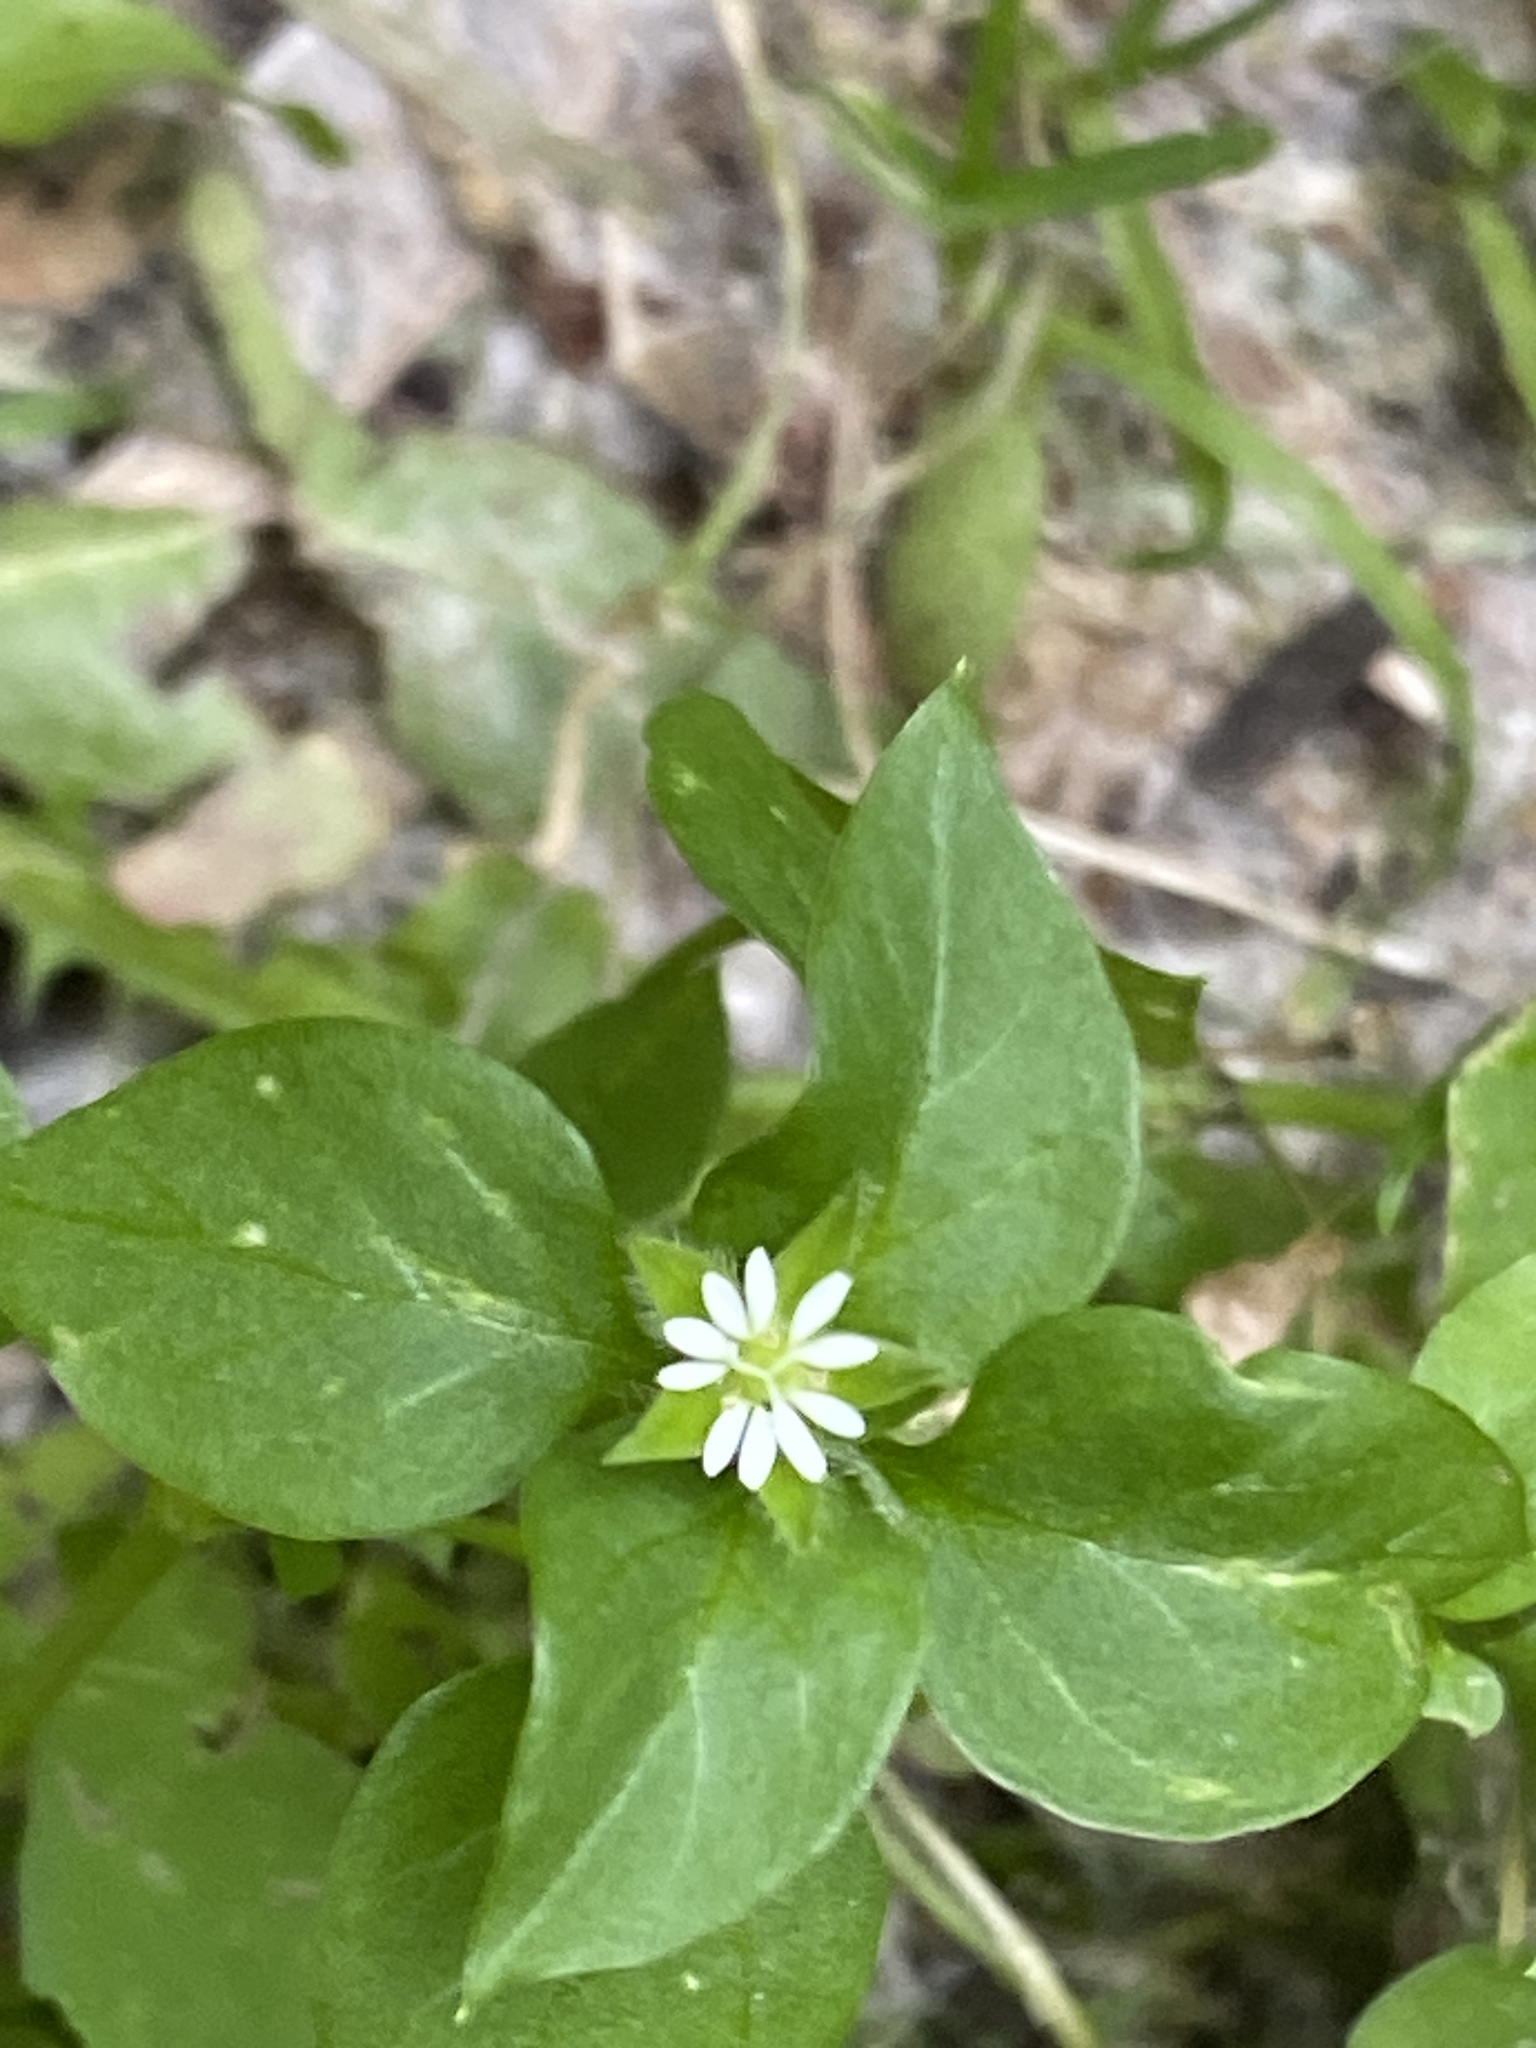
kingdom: Plantae
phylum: Tracheophyta
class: Magnoliopsida
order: Caryophyllales
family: Caryophyllaceae
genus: Stellaria
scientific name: Stellaria media
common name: Common chickweed
